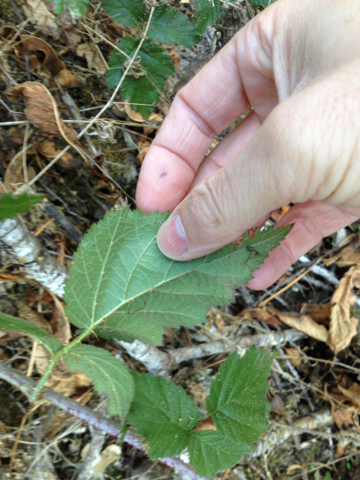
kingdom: Plantae
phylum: Tracheophyta
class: Magnoliopsida
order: Rosales
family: Rosaceae
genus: Rubus
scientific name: Rubus ursinus
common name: Pacific blackberry
